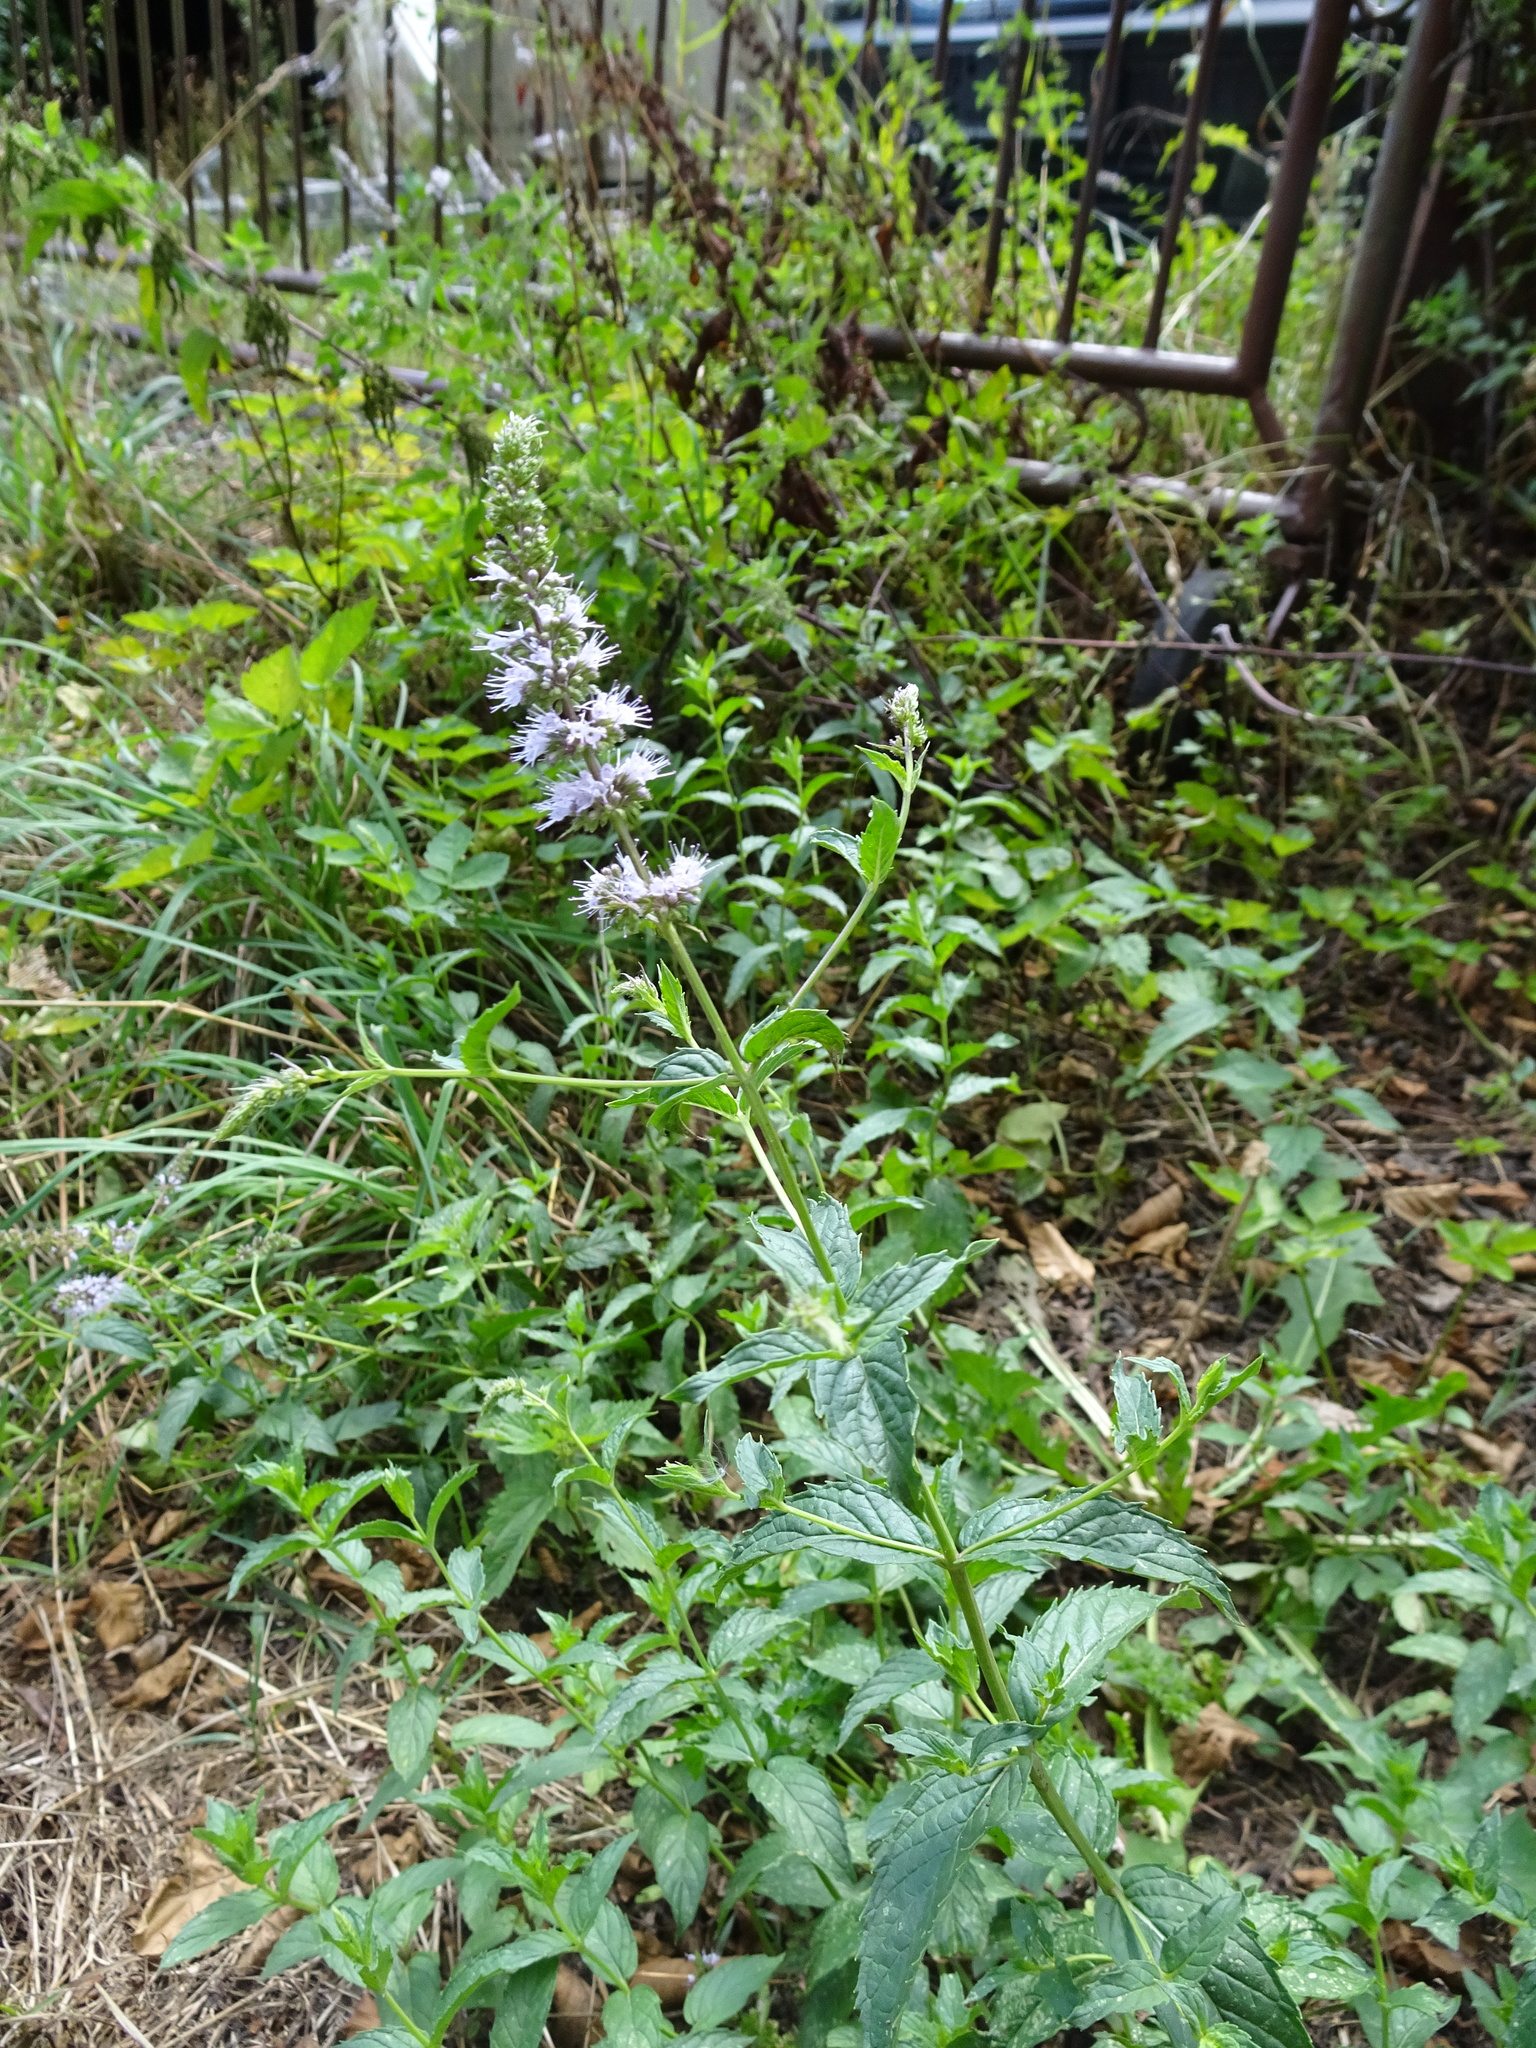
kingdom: Plantae
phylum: Tracheophyta
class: Magnoliopsida
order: Lamiales
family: Lamiaceae
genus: Mentha
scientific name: Mentha spicata
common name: Spearmint
